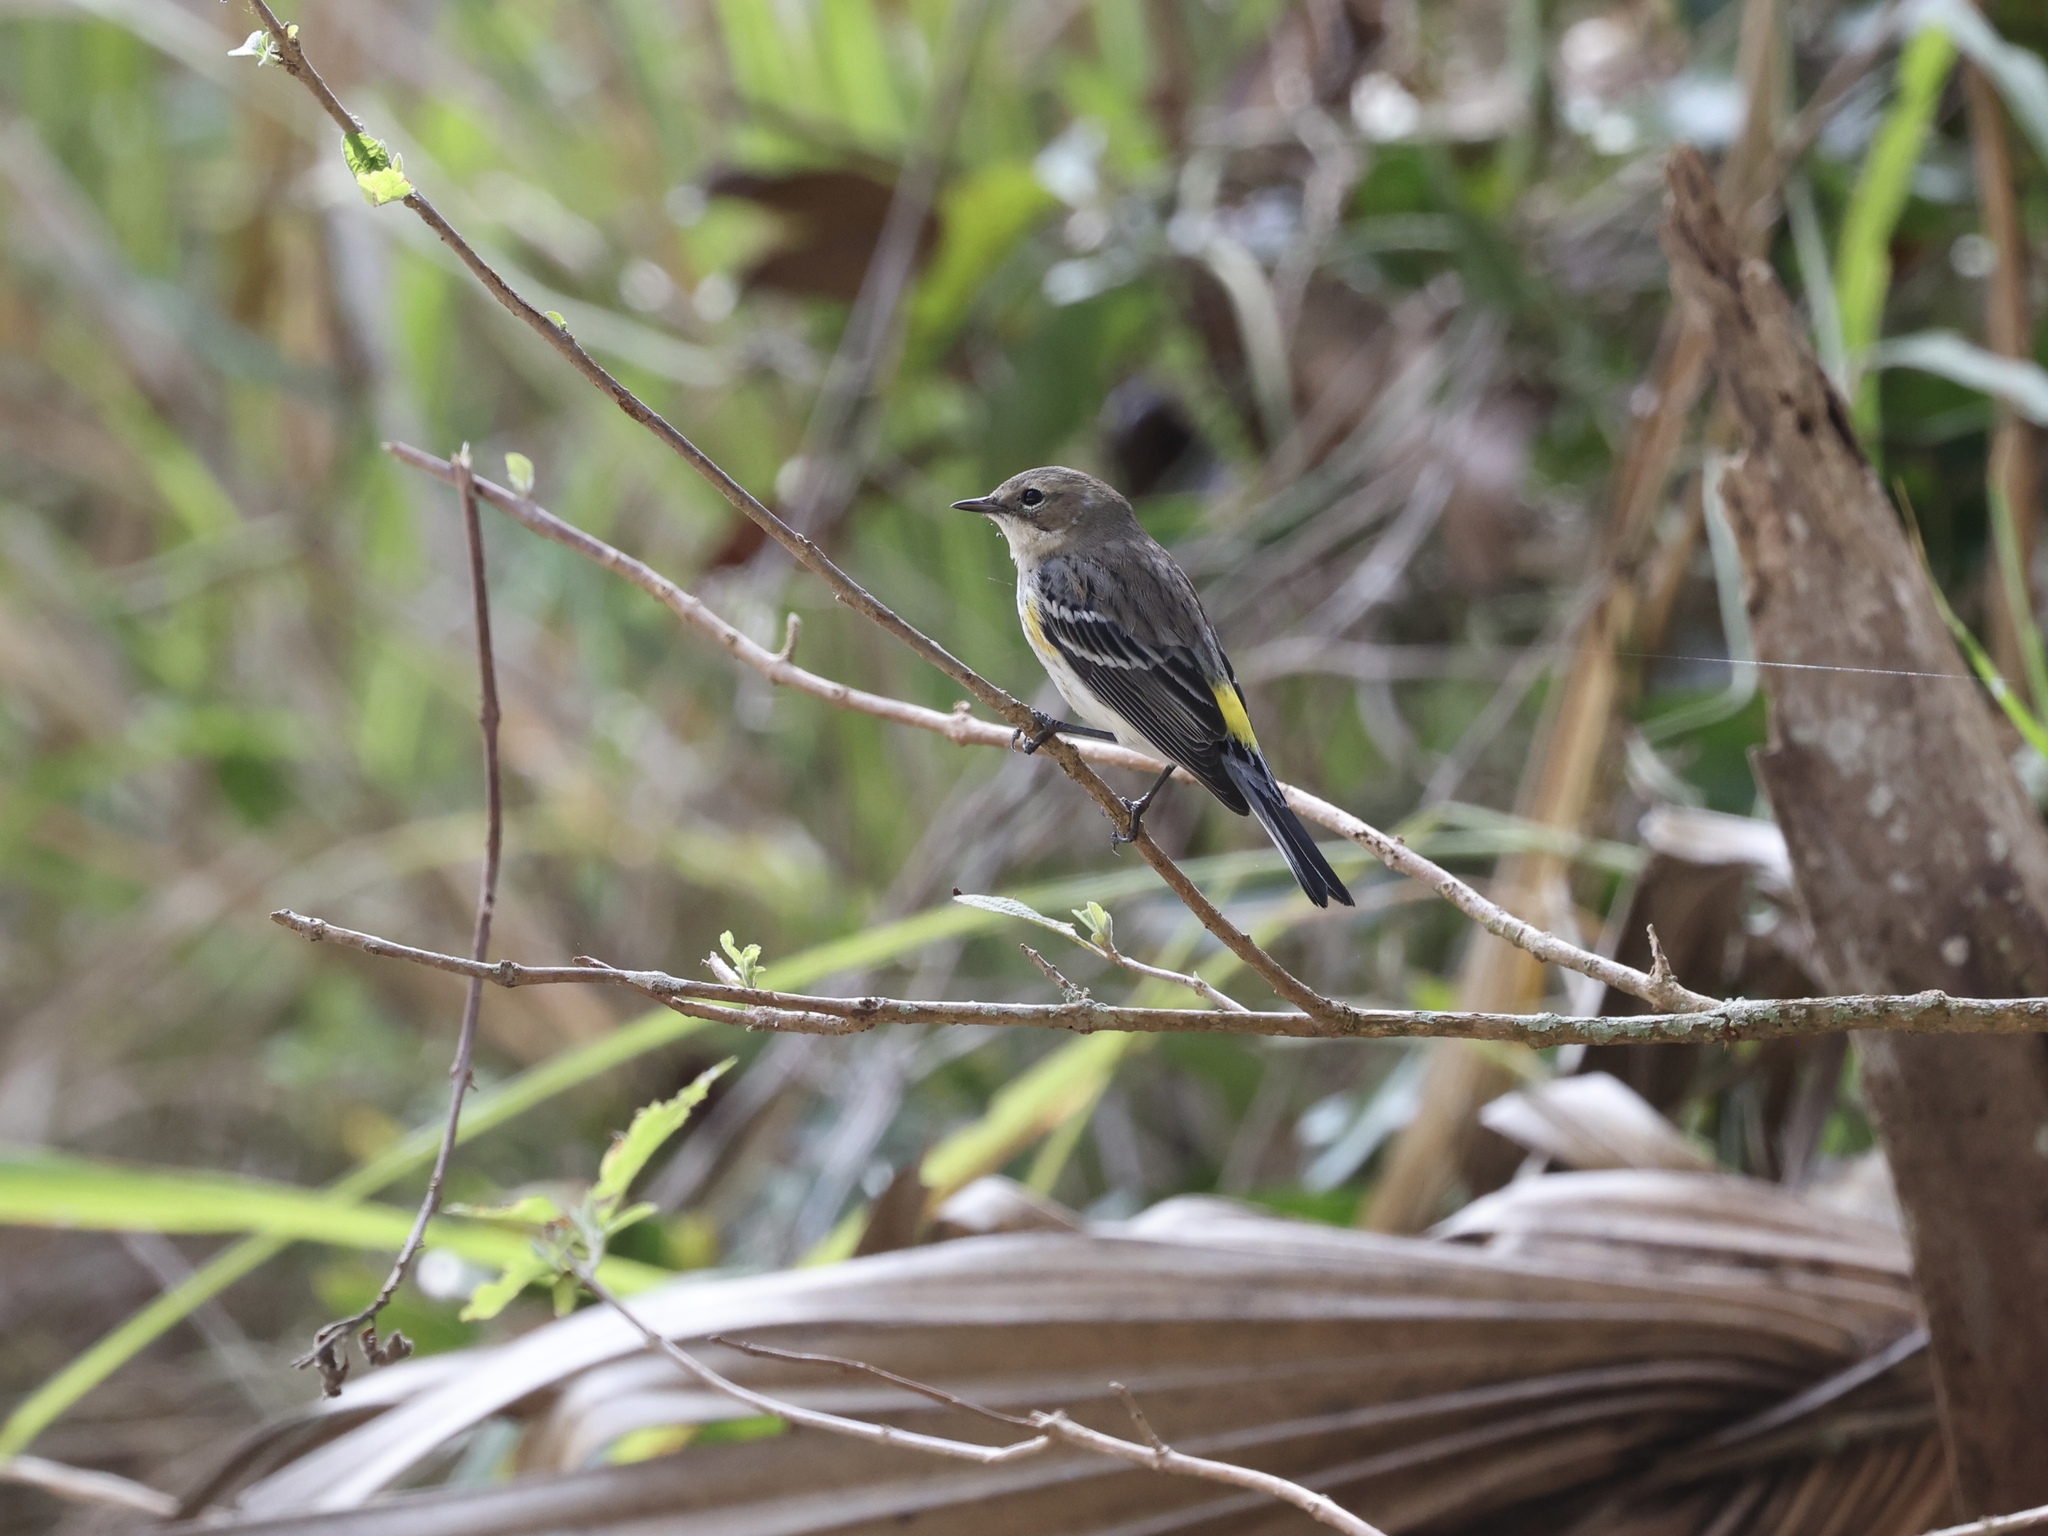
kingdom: Animalia
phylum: Chordata
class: Aves
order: Passeriformes
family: Parulidae
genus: Setophaga
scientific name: Setophaga coronata
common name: Myrtle warbler
